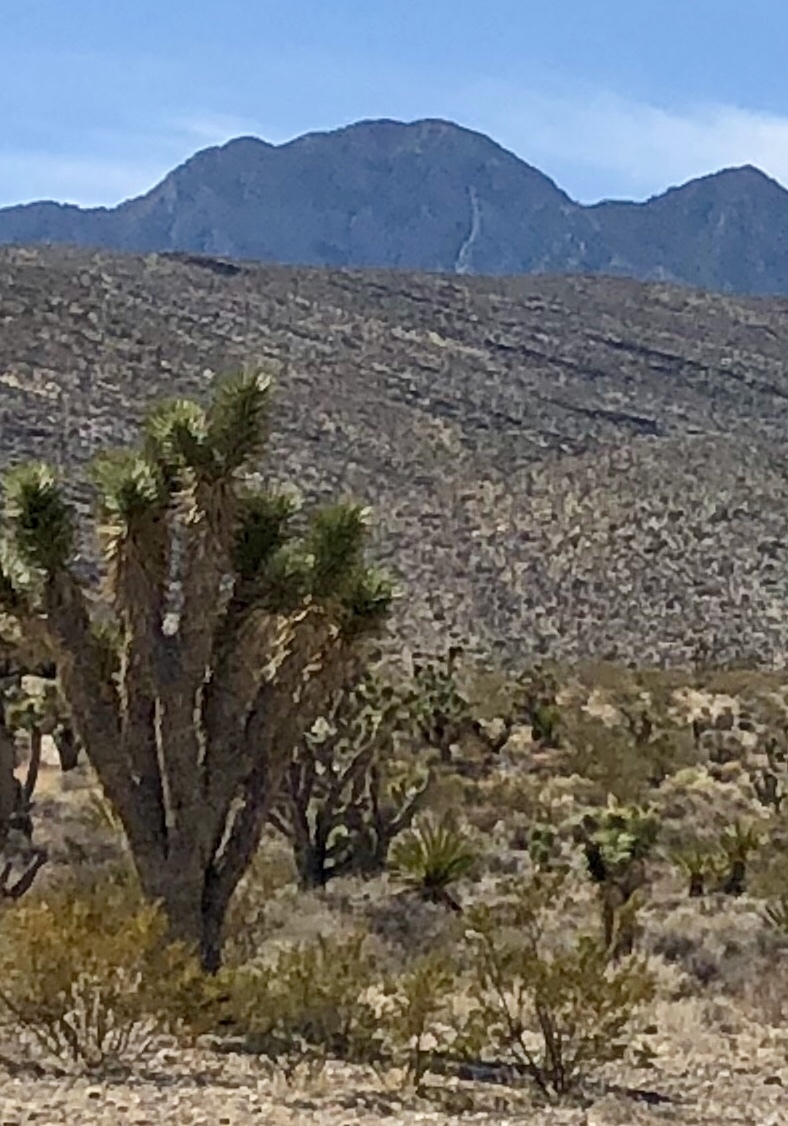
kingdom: Plantae
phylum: Tracheophyta
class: Liliopsida
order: Asparagales
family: Asparagaceae
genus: Yucca
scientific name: Yucca brevifolia
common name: Joshua tree
